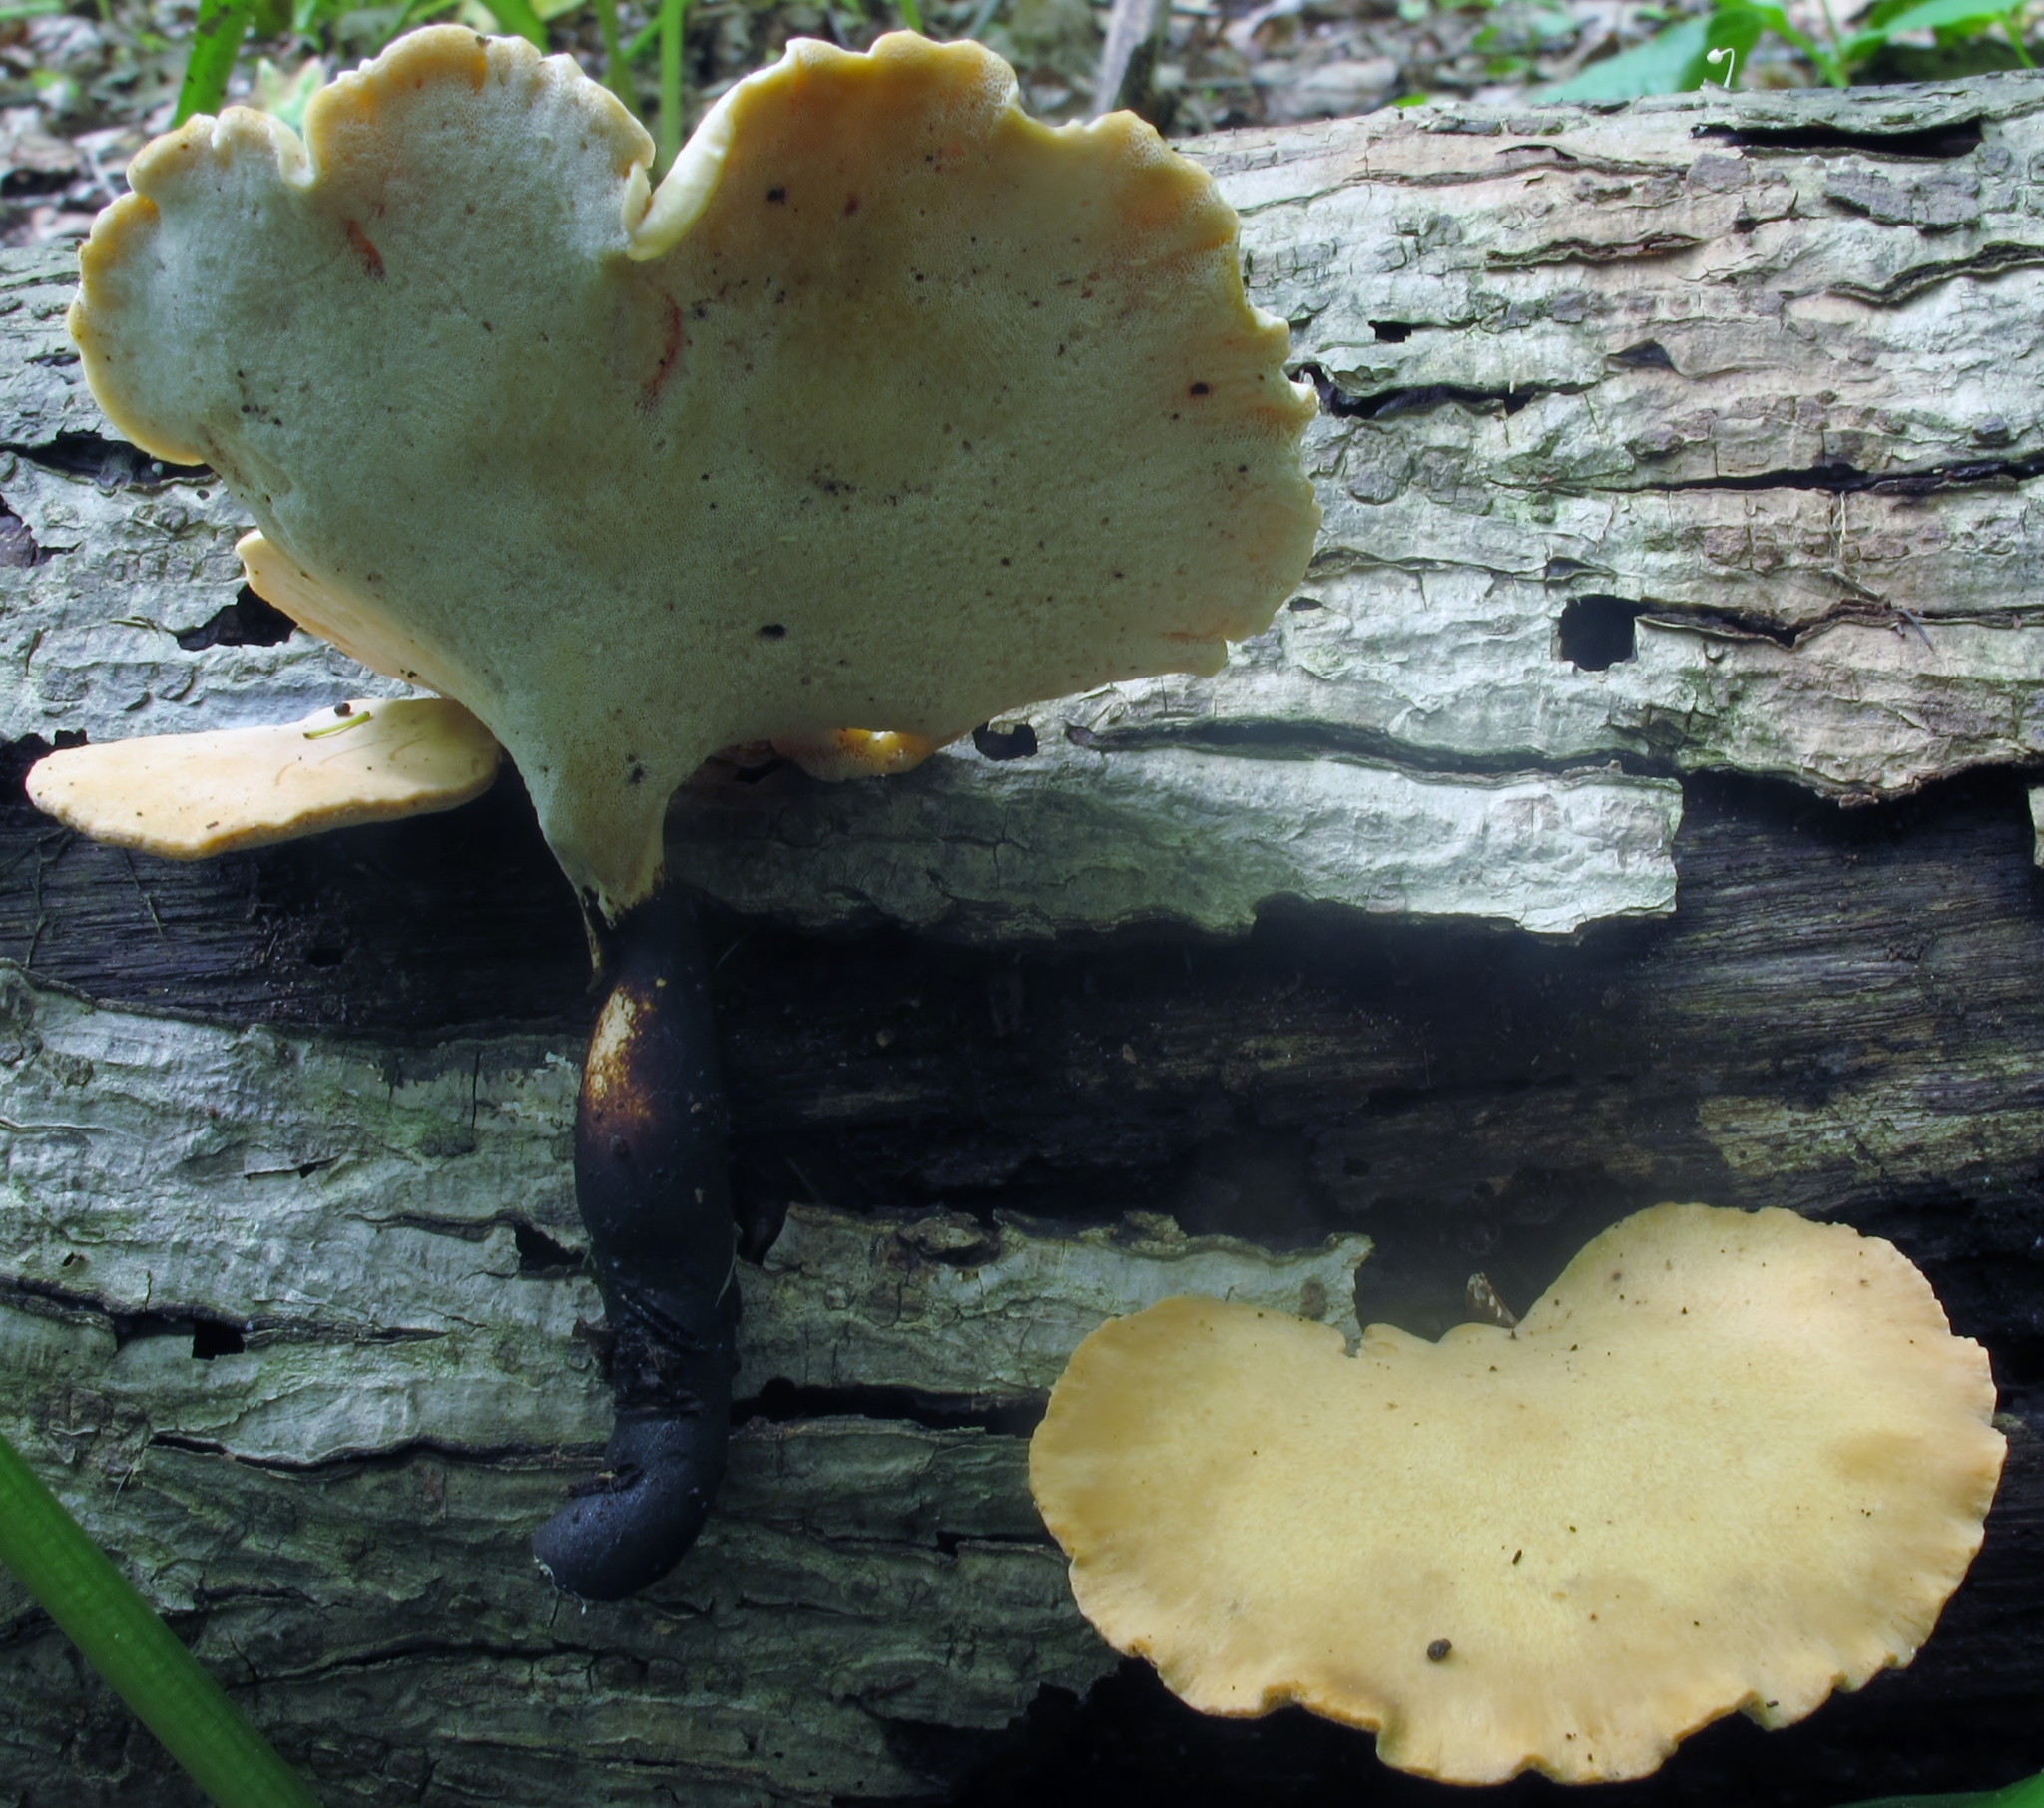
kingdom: Fungi
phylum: Basidiomycota
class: Agaricomycetes
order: Polyporales
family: Polyporaceae
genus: Cerioporus
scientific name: Cerioporus leptocephalus
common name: Blackfoot polypore
